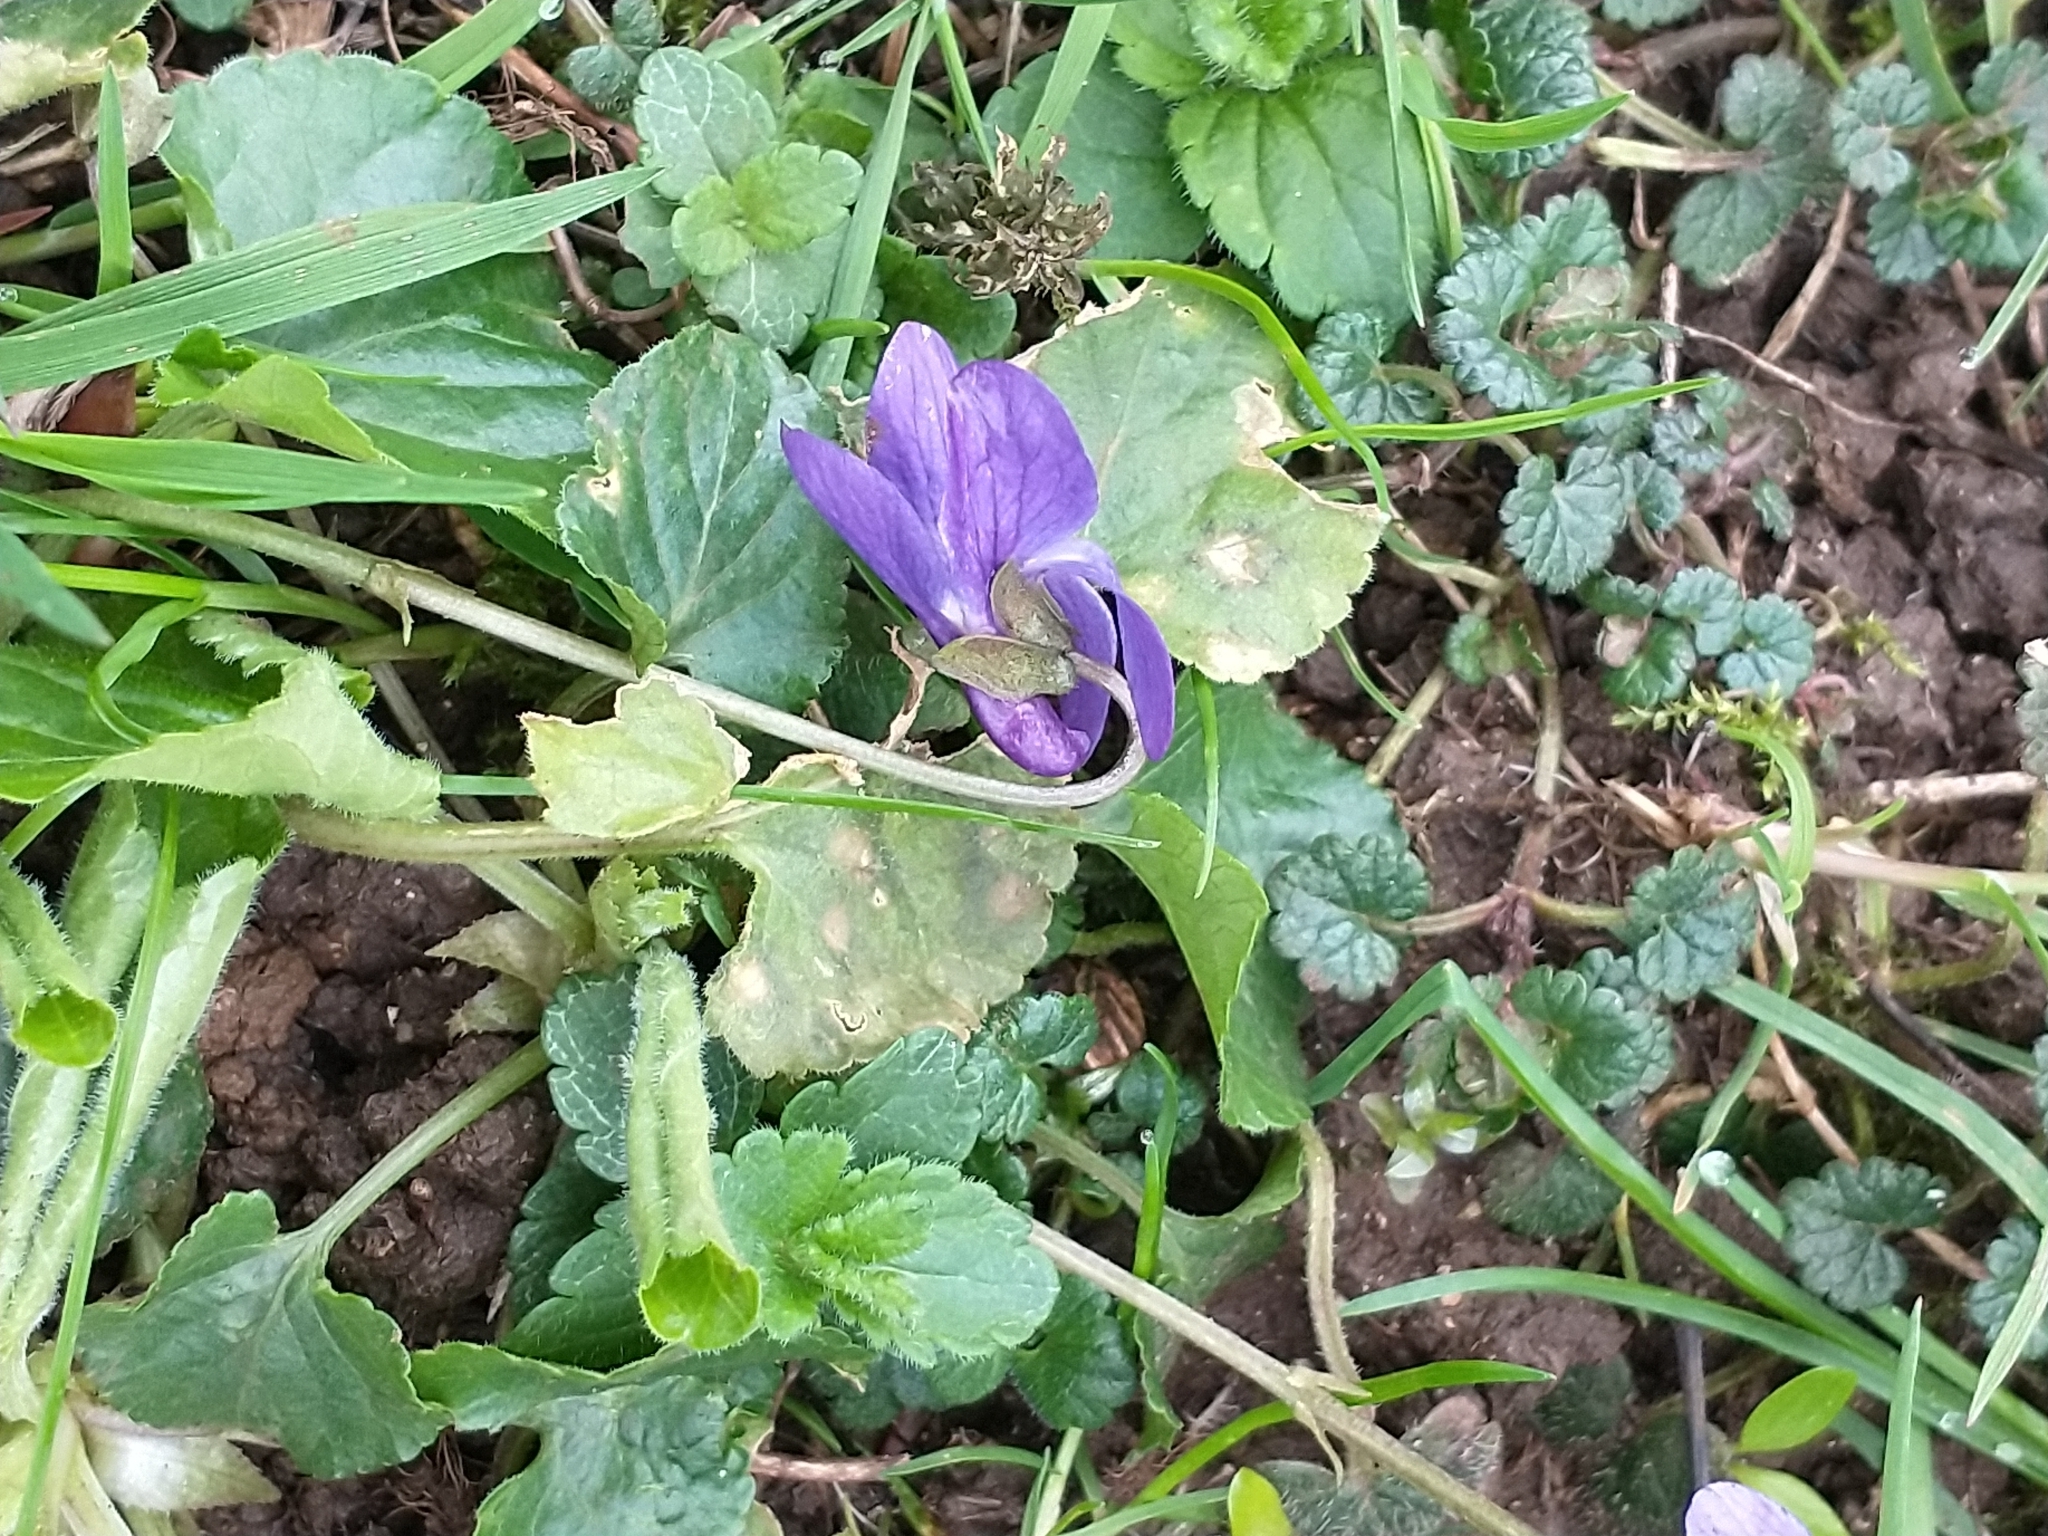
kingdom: Plantae
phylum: Tracheophyta
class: Magnoliopsida
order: Malpighiales
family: Violaceae
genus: Viola
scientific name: Viola odorata
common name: Sweet violet
